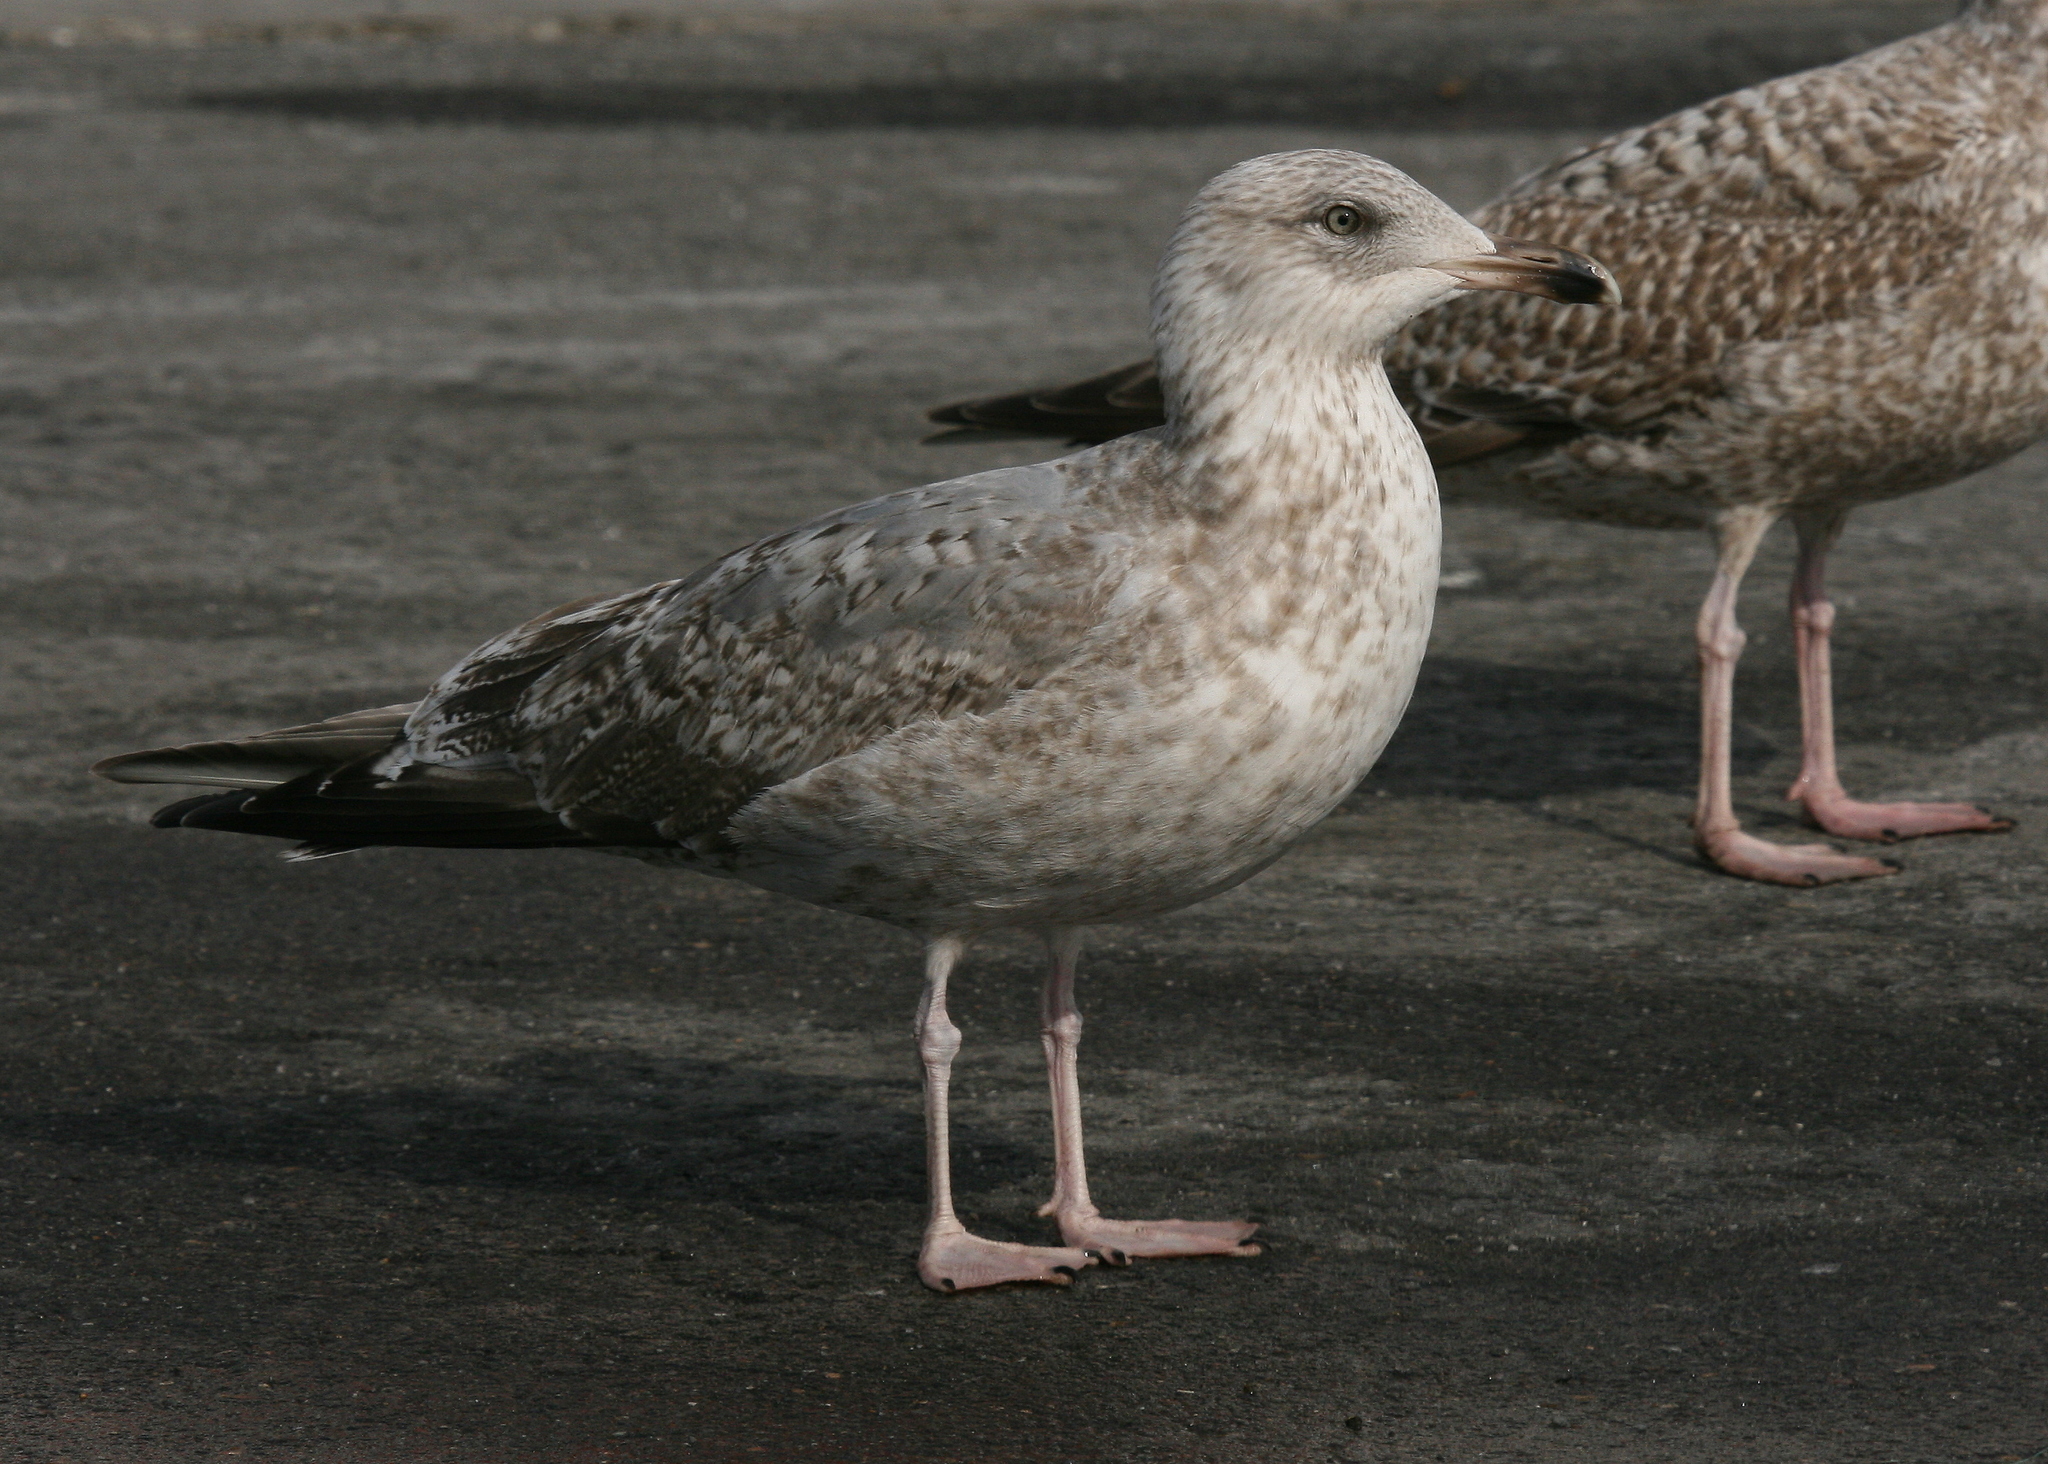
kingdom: Animalia
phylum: Chordata
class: Aves
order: Charadriiformes
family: Laridae
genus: Larus
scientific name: Larus argentatus
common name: Herring gull
